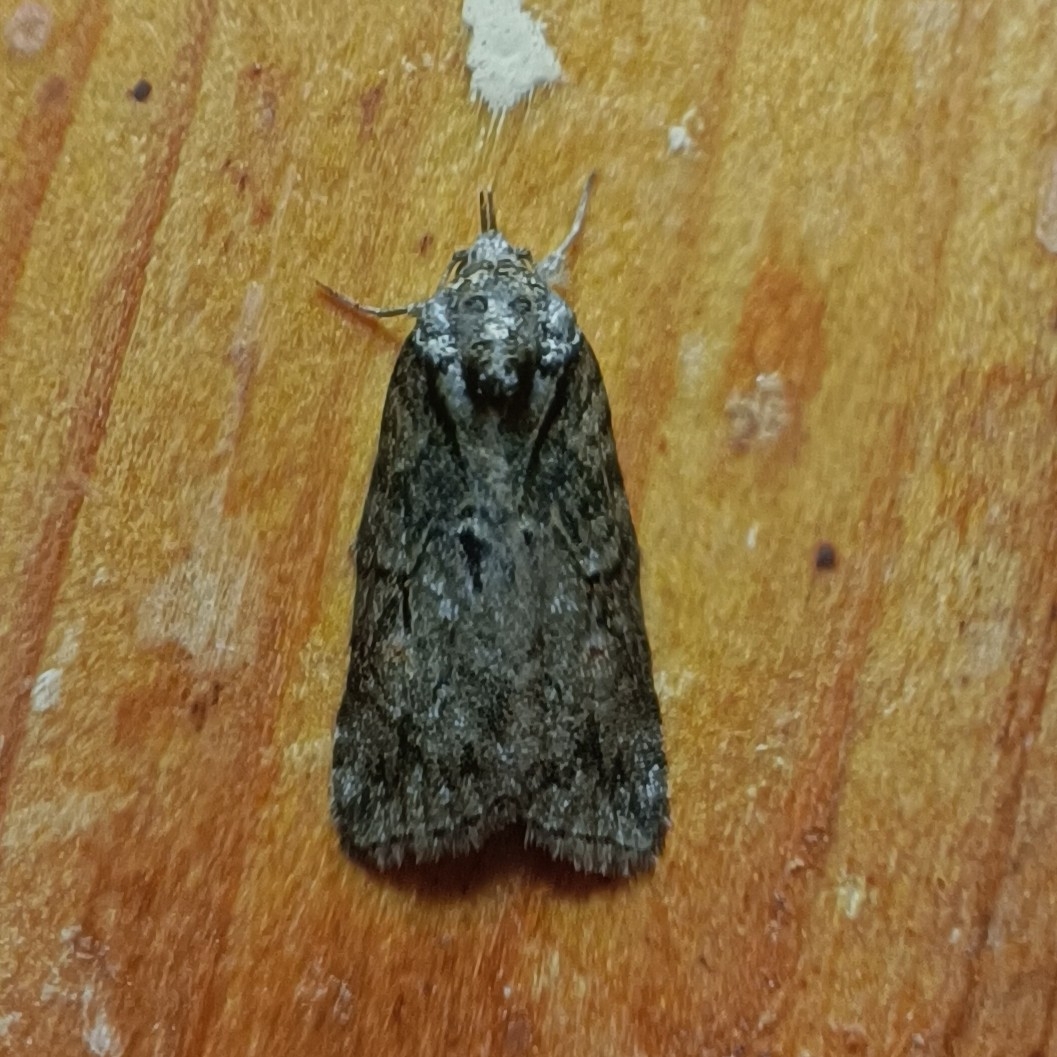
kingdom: Animalia
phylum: Arthropoda
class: Insecta
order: Lepidoptera
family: Nolidae
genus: Nycteola
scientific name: Nycteola degenerana
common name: Swallow nycteoline
